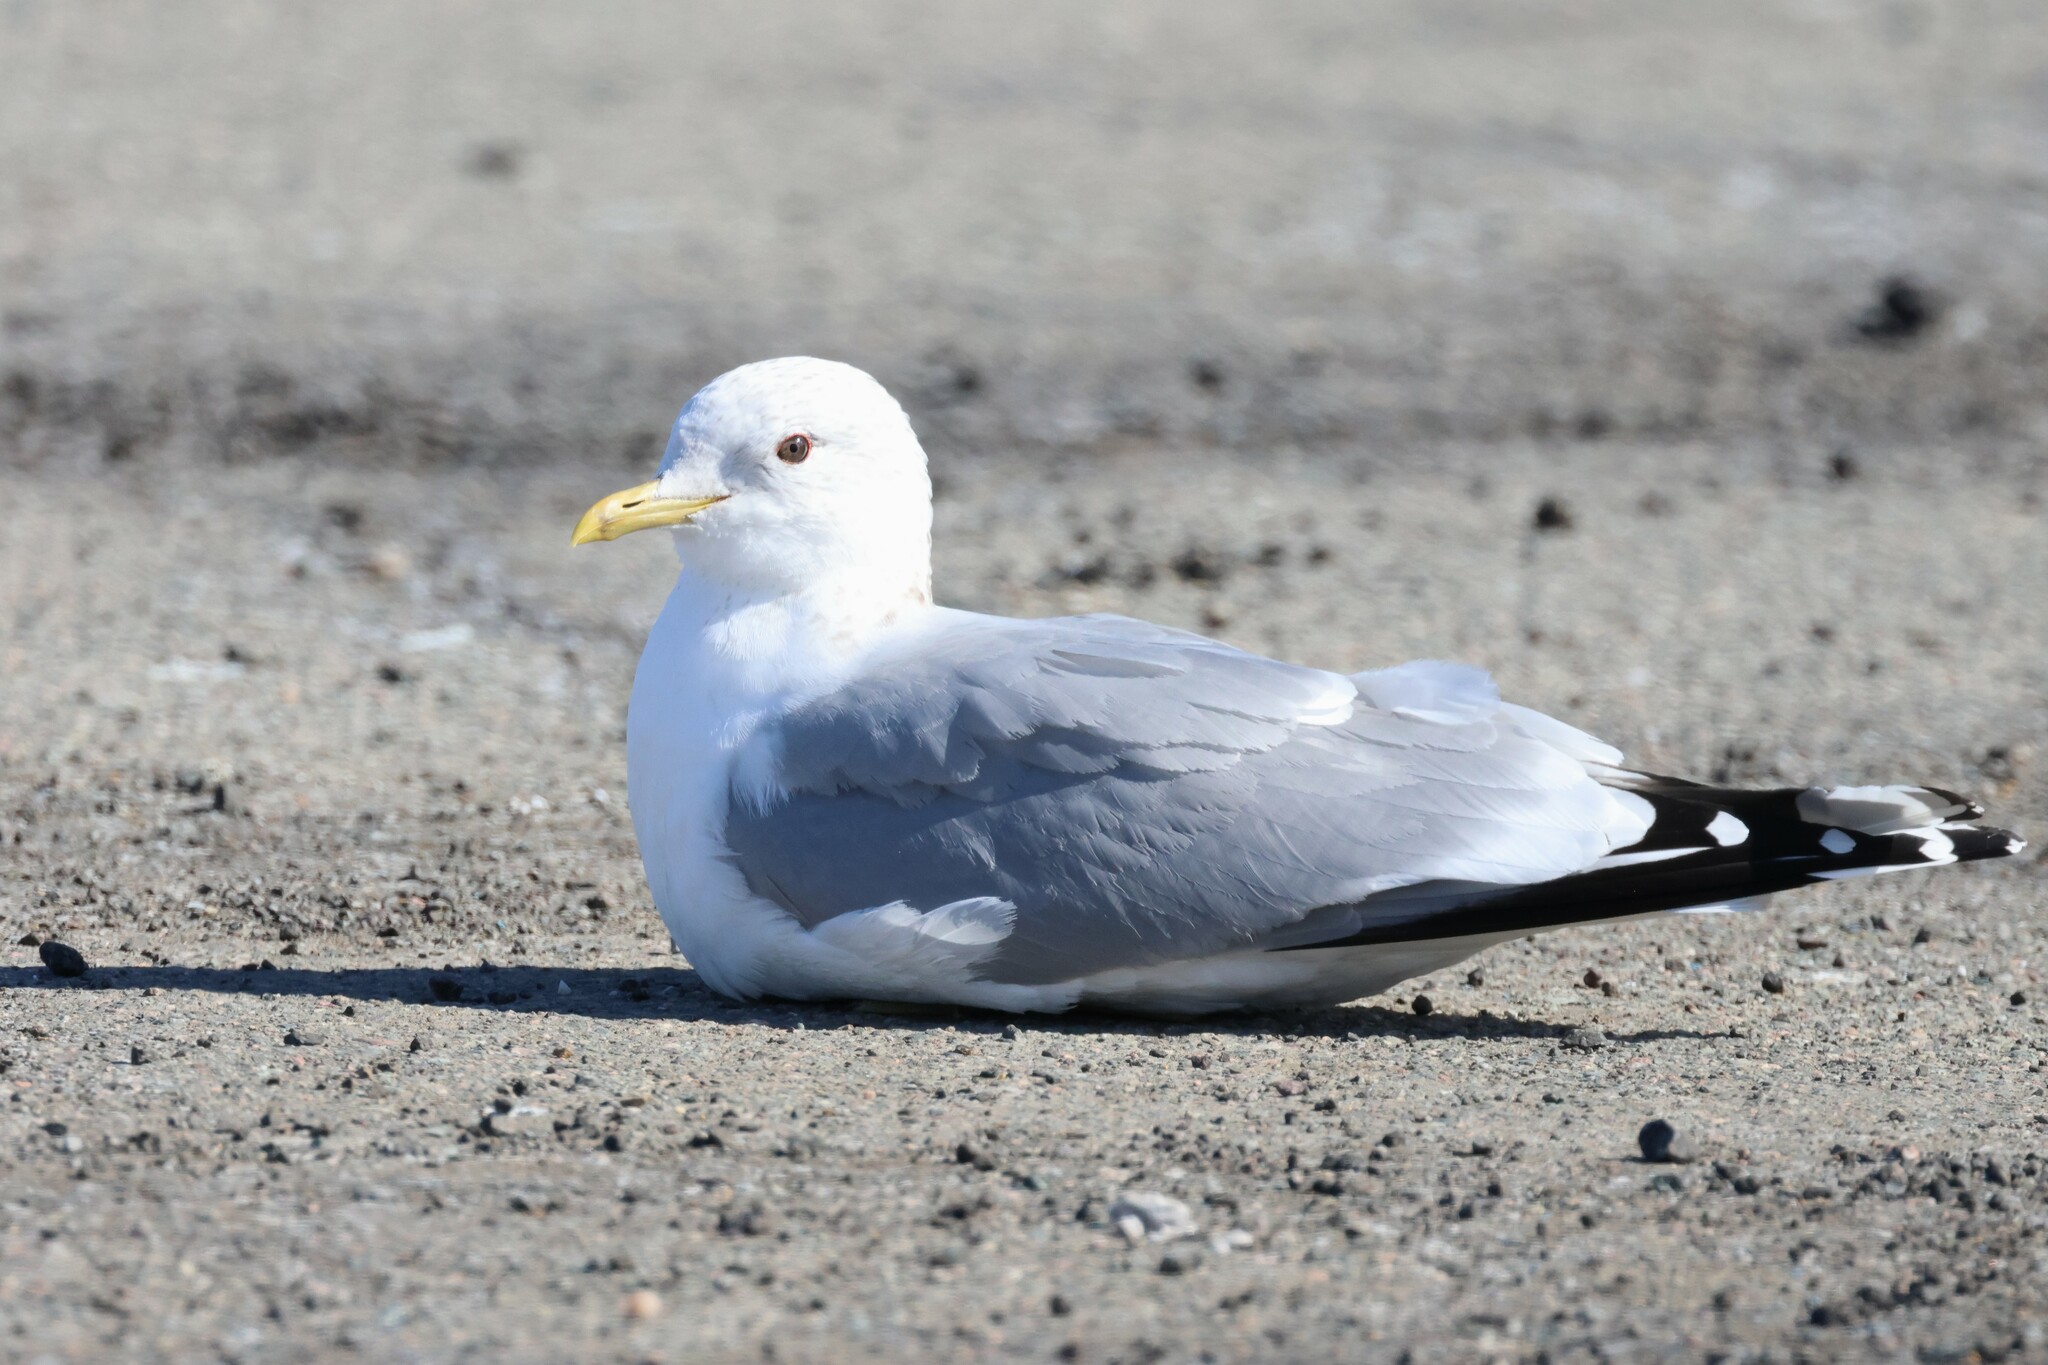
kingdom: Animalia
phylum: Chordata
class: Aves
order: Charadriiformes
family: Laridae
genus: Larus
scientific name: Larus canus
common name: Mew gull
